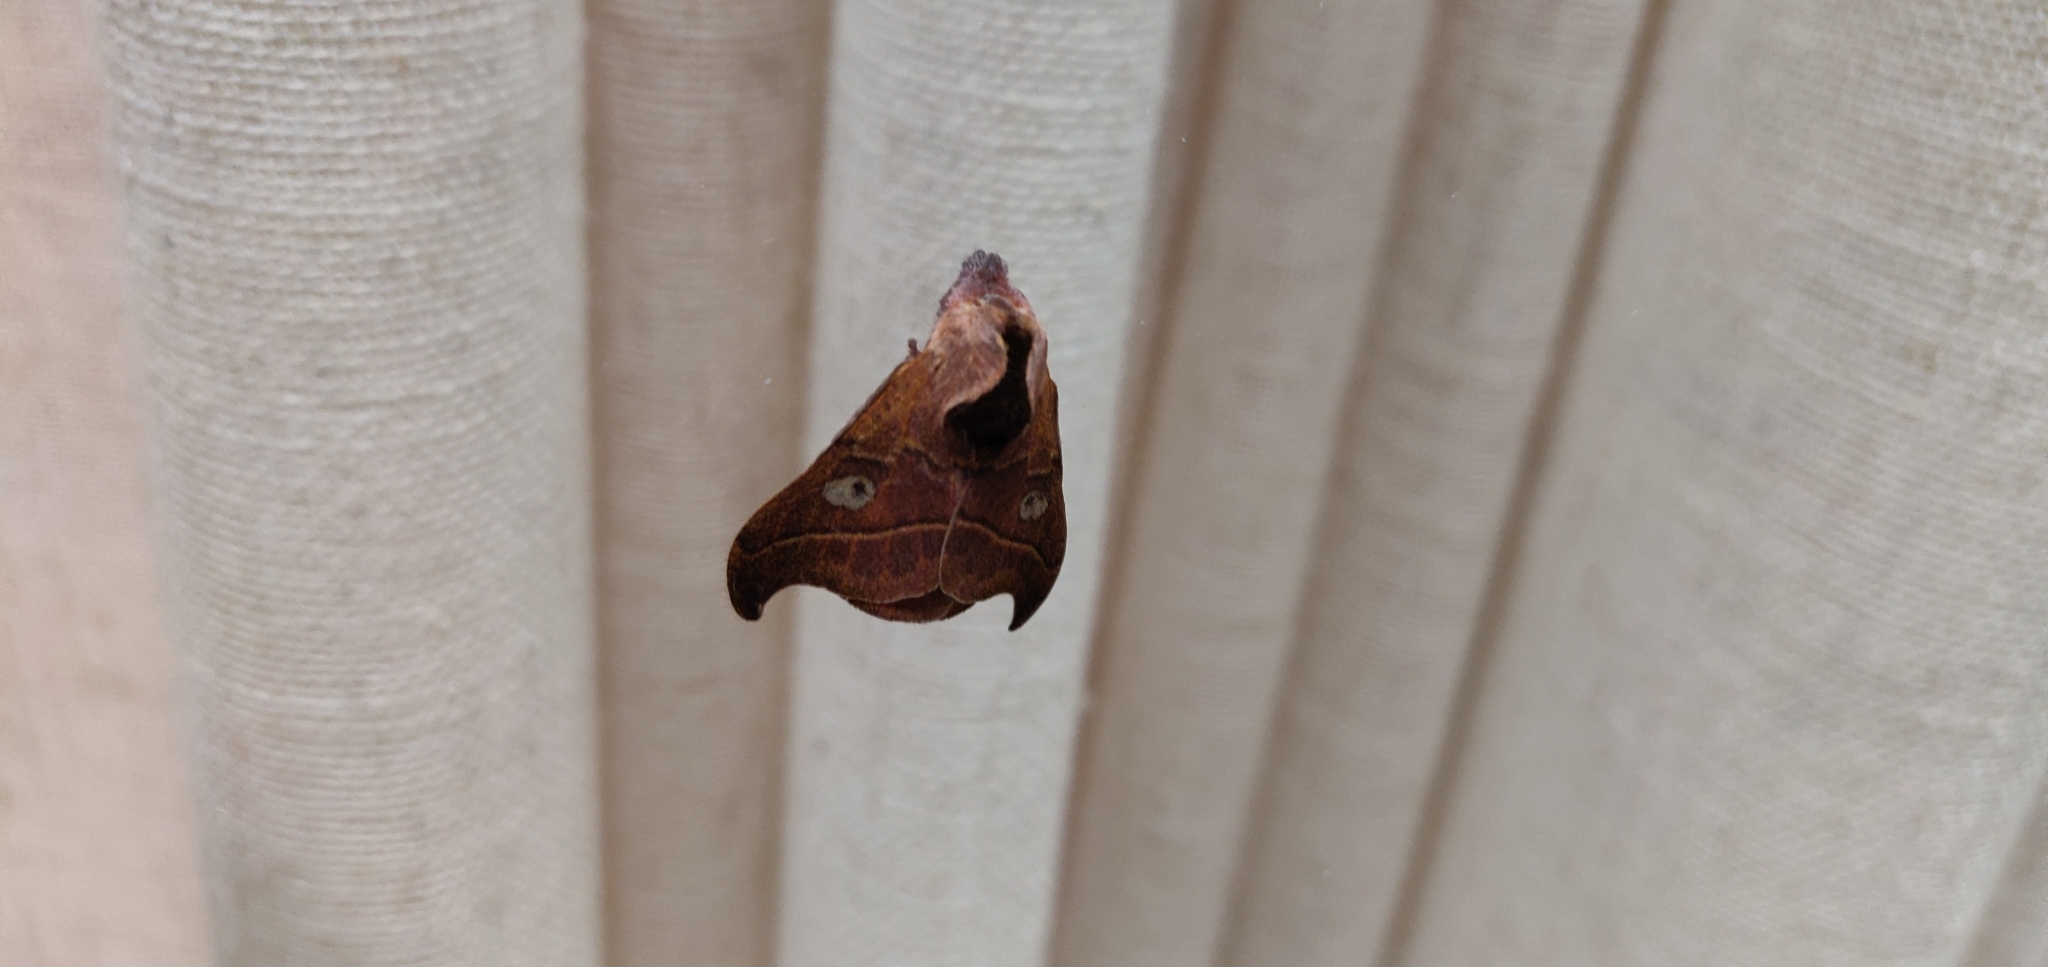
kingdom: Animalia
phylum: Arthropoda
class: Insecta
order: Lepidoptera
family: Saturniidae
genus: Hylesia
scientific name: Hylesia nanus
